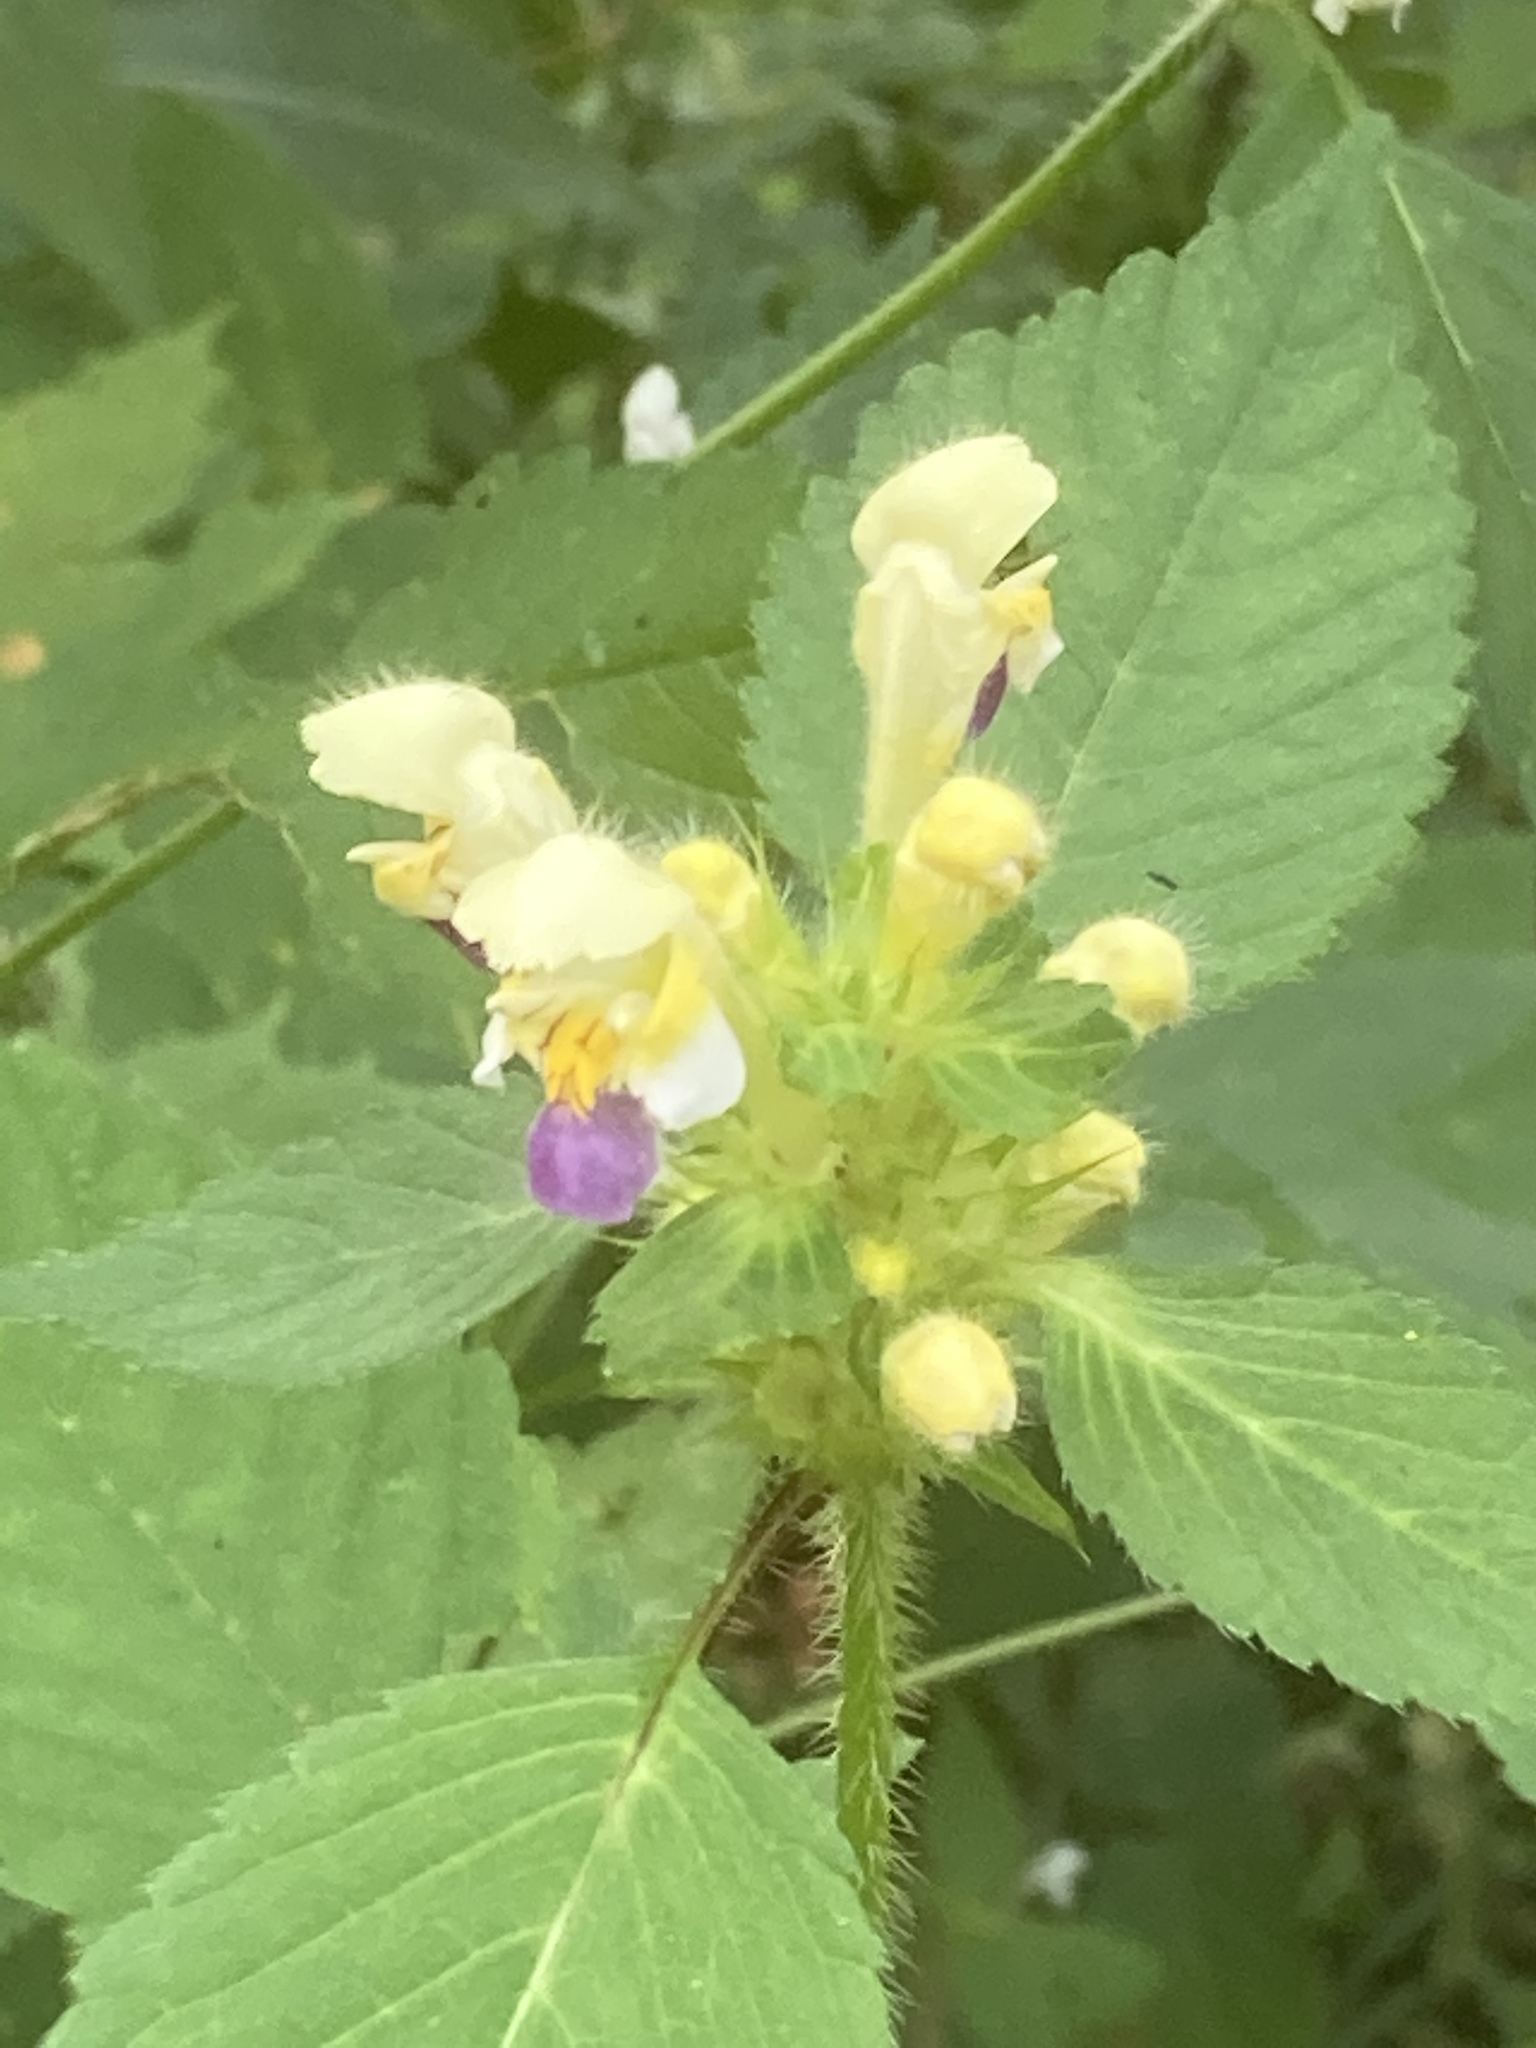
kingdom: Plantae
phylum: Tracheophyta
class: Magnoliopsida
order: Lamiales
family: Lamiaceae
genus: Galeopsis
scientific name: Galeopsis speciosa
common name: Large-flowered hemp-nettle
